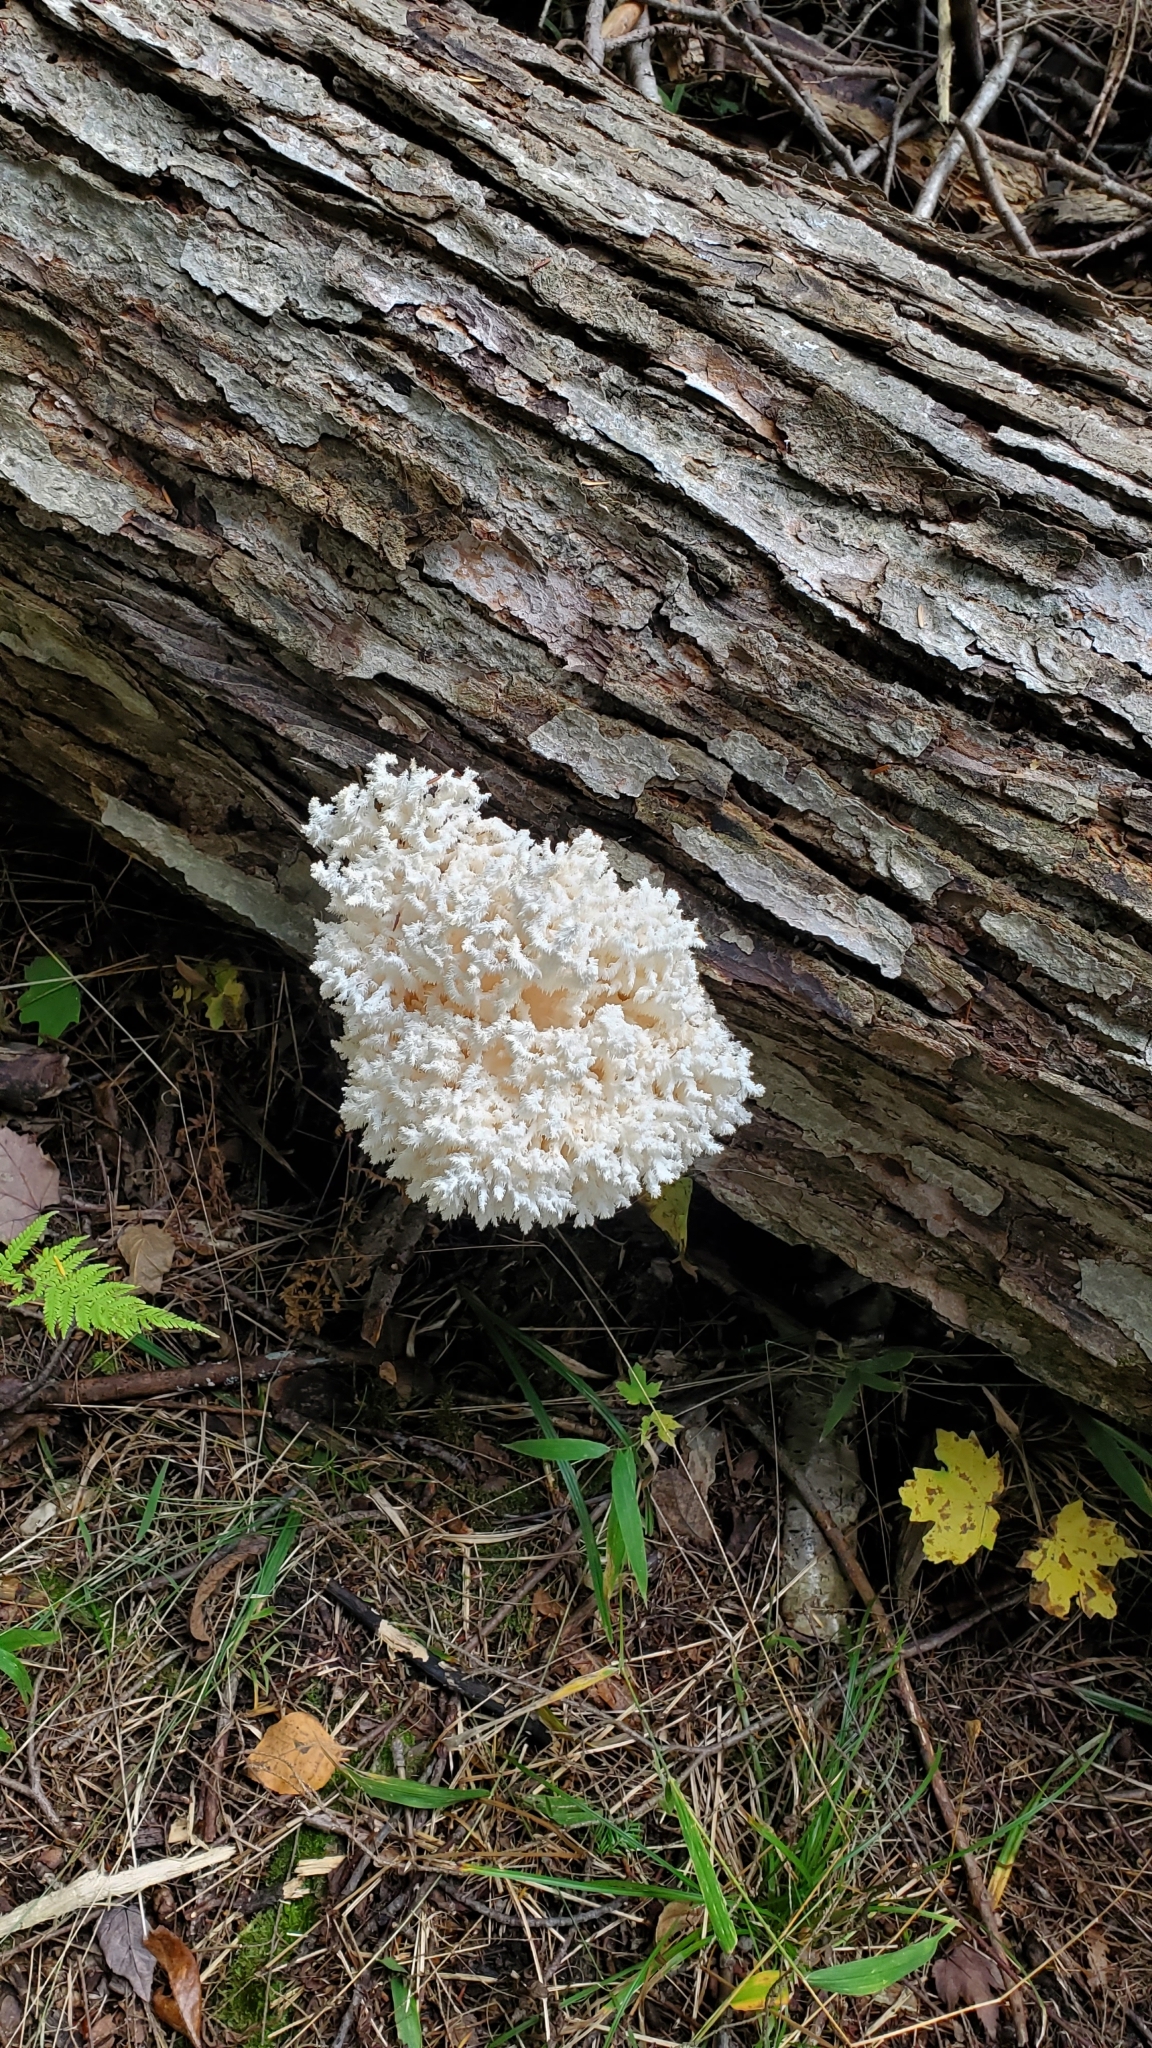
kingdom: Fungi
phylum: Basidiomycota
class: Agaricomycetes
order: Russulales
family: Hericiaceae
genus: Hericium
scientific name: Hericium coralloides
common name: Coral tooth
